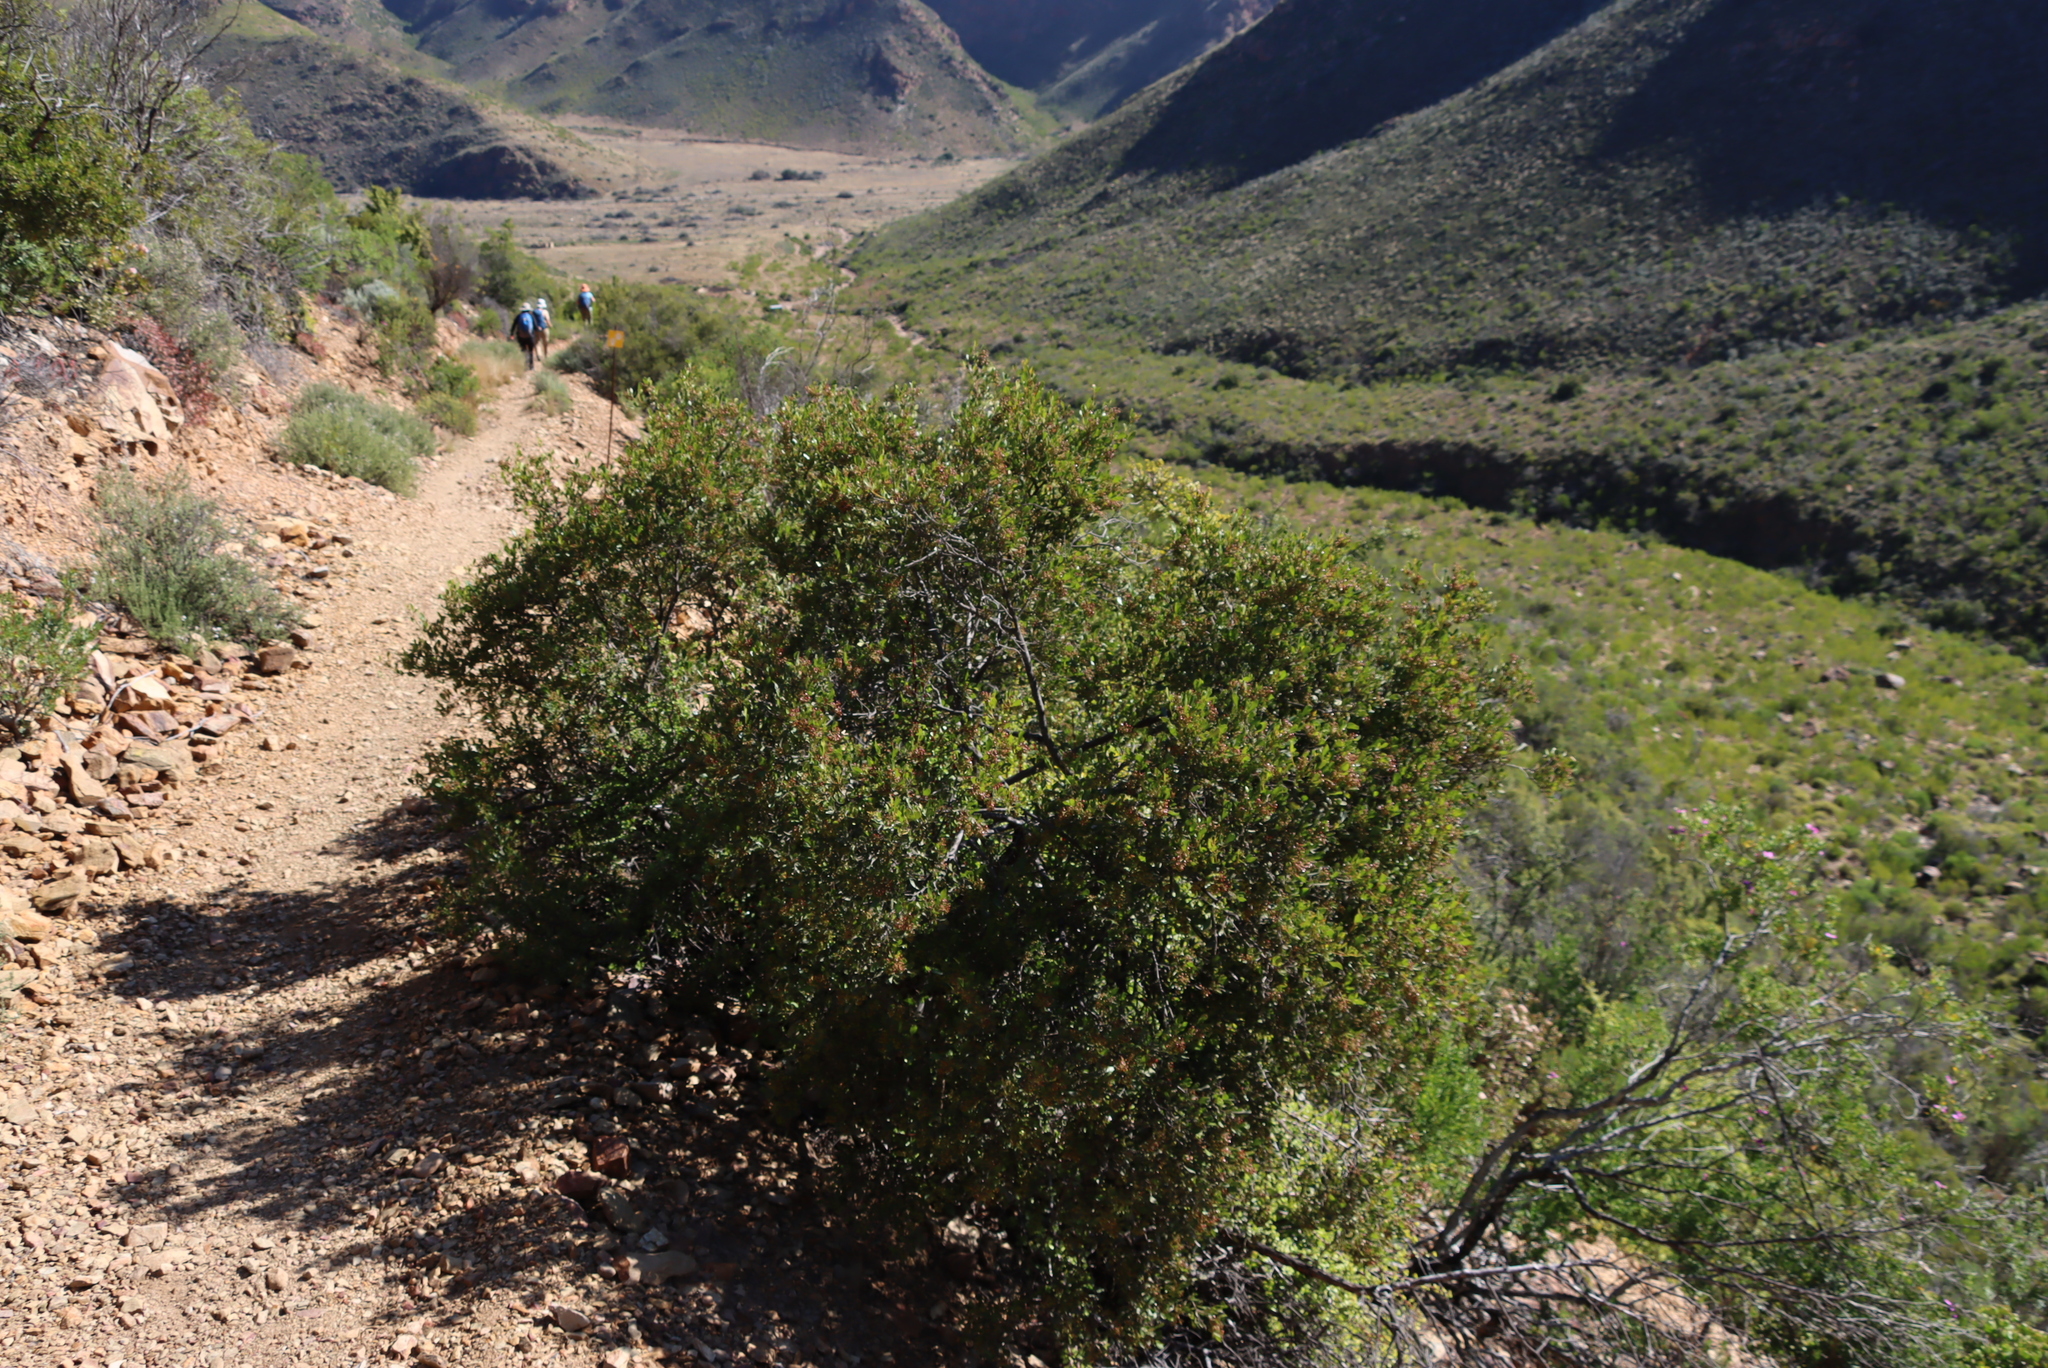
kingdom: Plantae
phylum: Tracheophyta
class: Magnoliopsida
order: Sapindales
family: Anacardiaceae
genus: Searsia
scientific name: Searsia pallens
